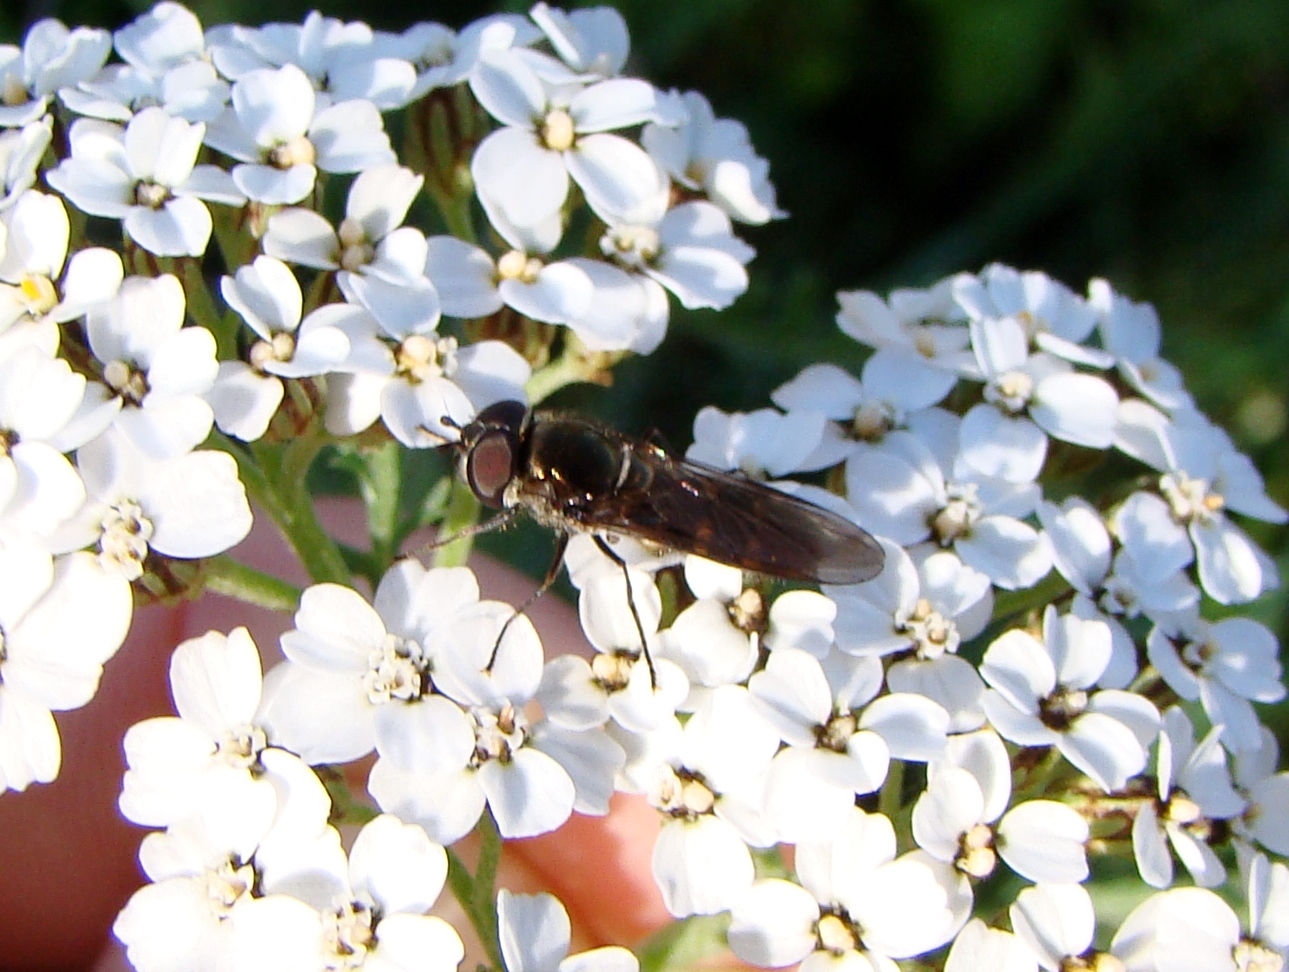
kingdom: Animalia
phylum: Arthropoda
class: Insecta
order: Diptera
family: Syrphidae
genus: Melangyna
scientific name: Melangyna novaezelandiae
